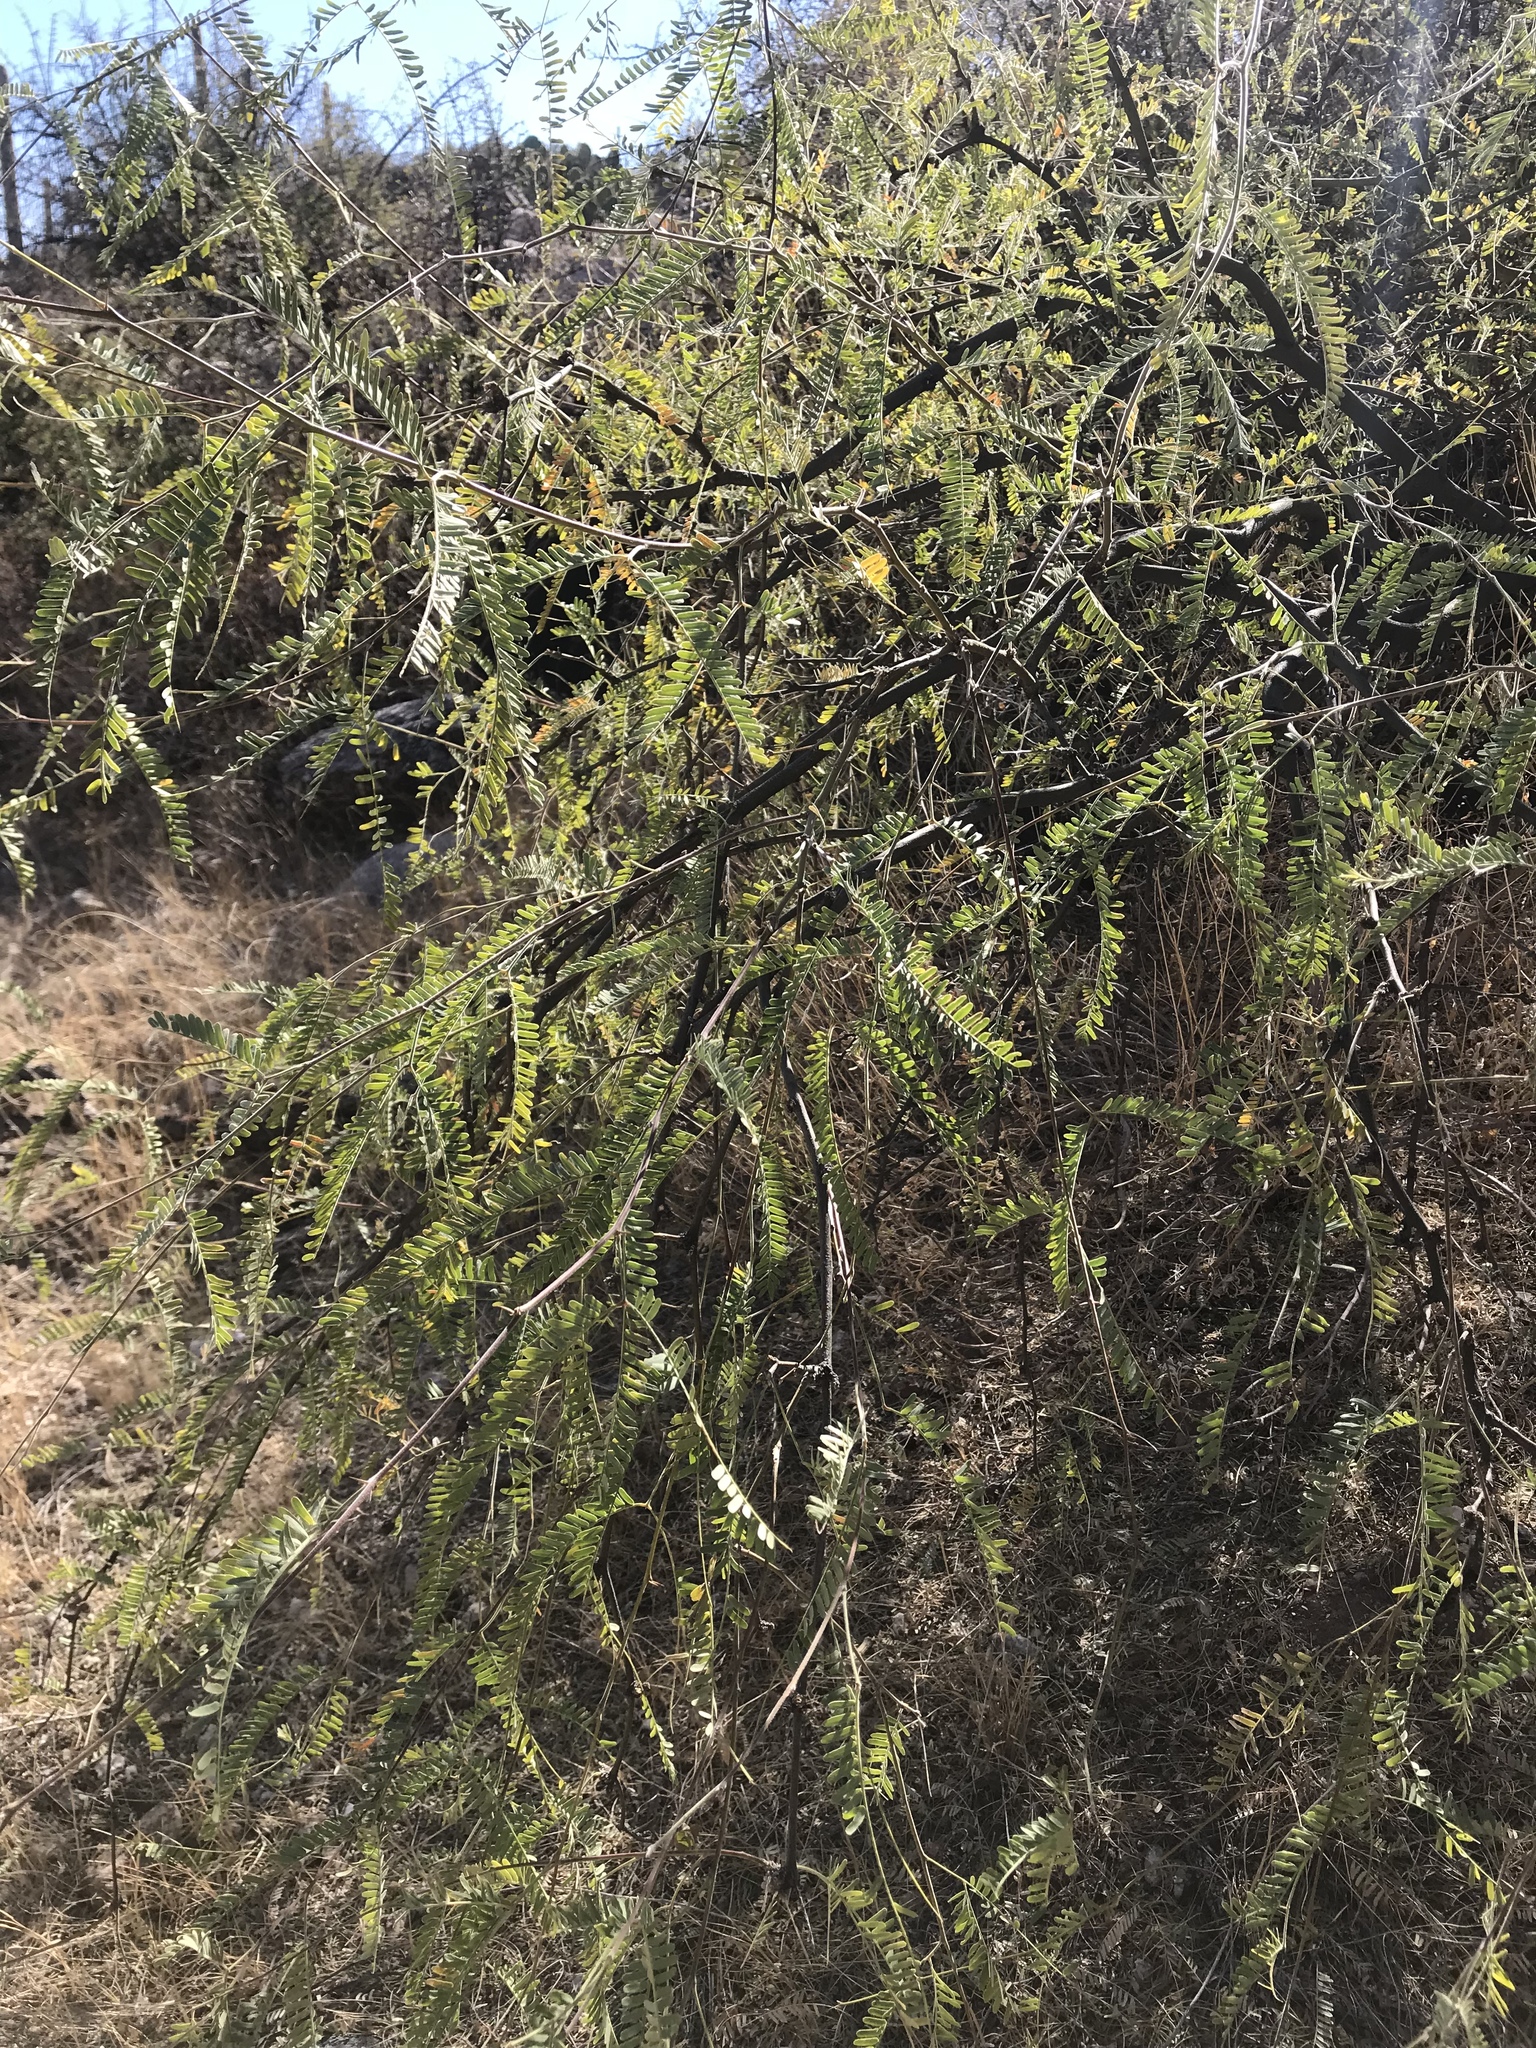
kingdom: Plantae
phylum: Tracheophyta
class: Magnoliopsida
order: Fabales
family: Fabaceae
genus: Prosopis
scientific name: Prosopis velutina
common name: Velvet mesquite
